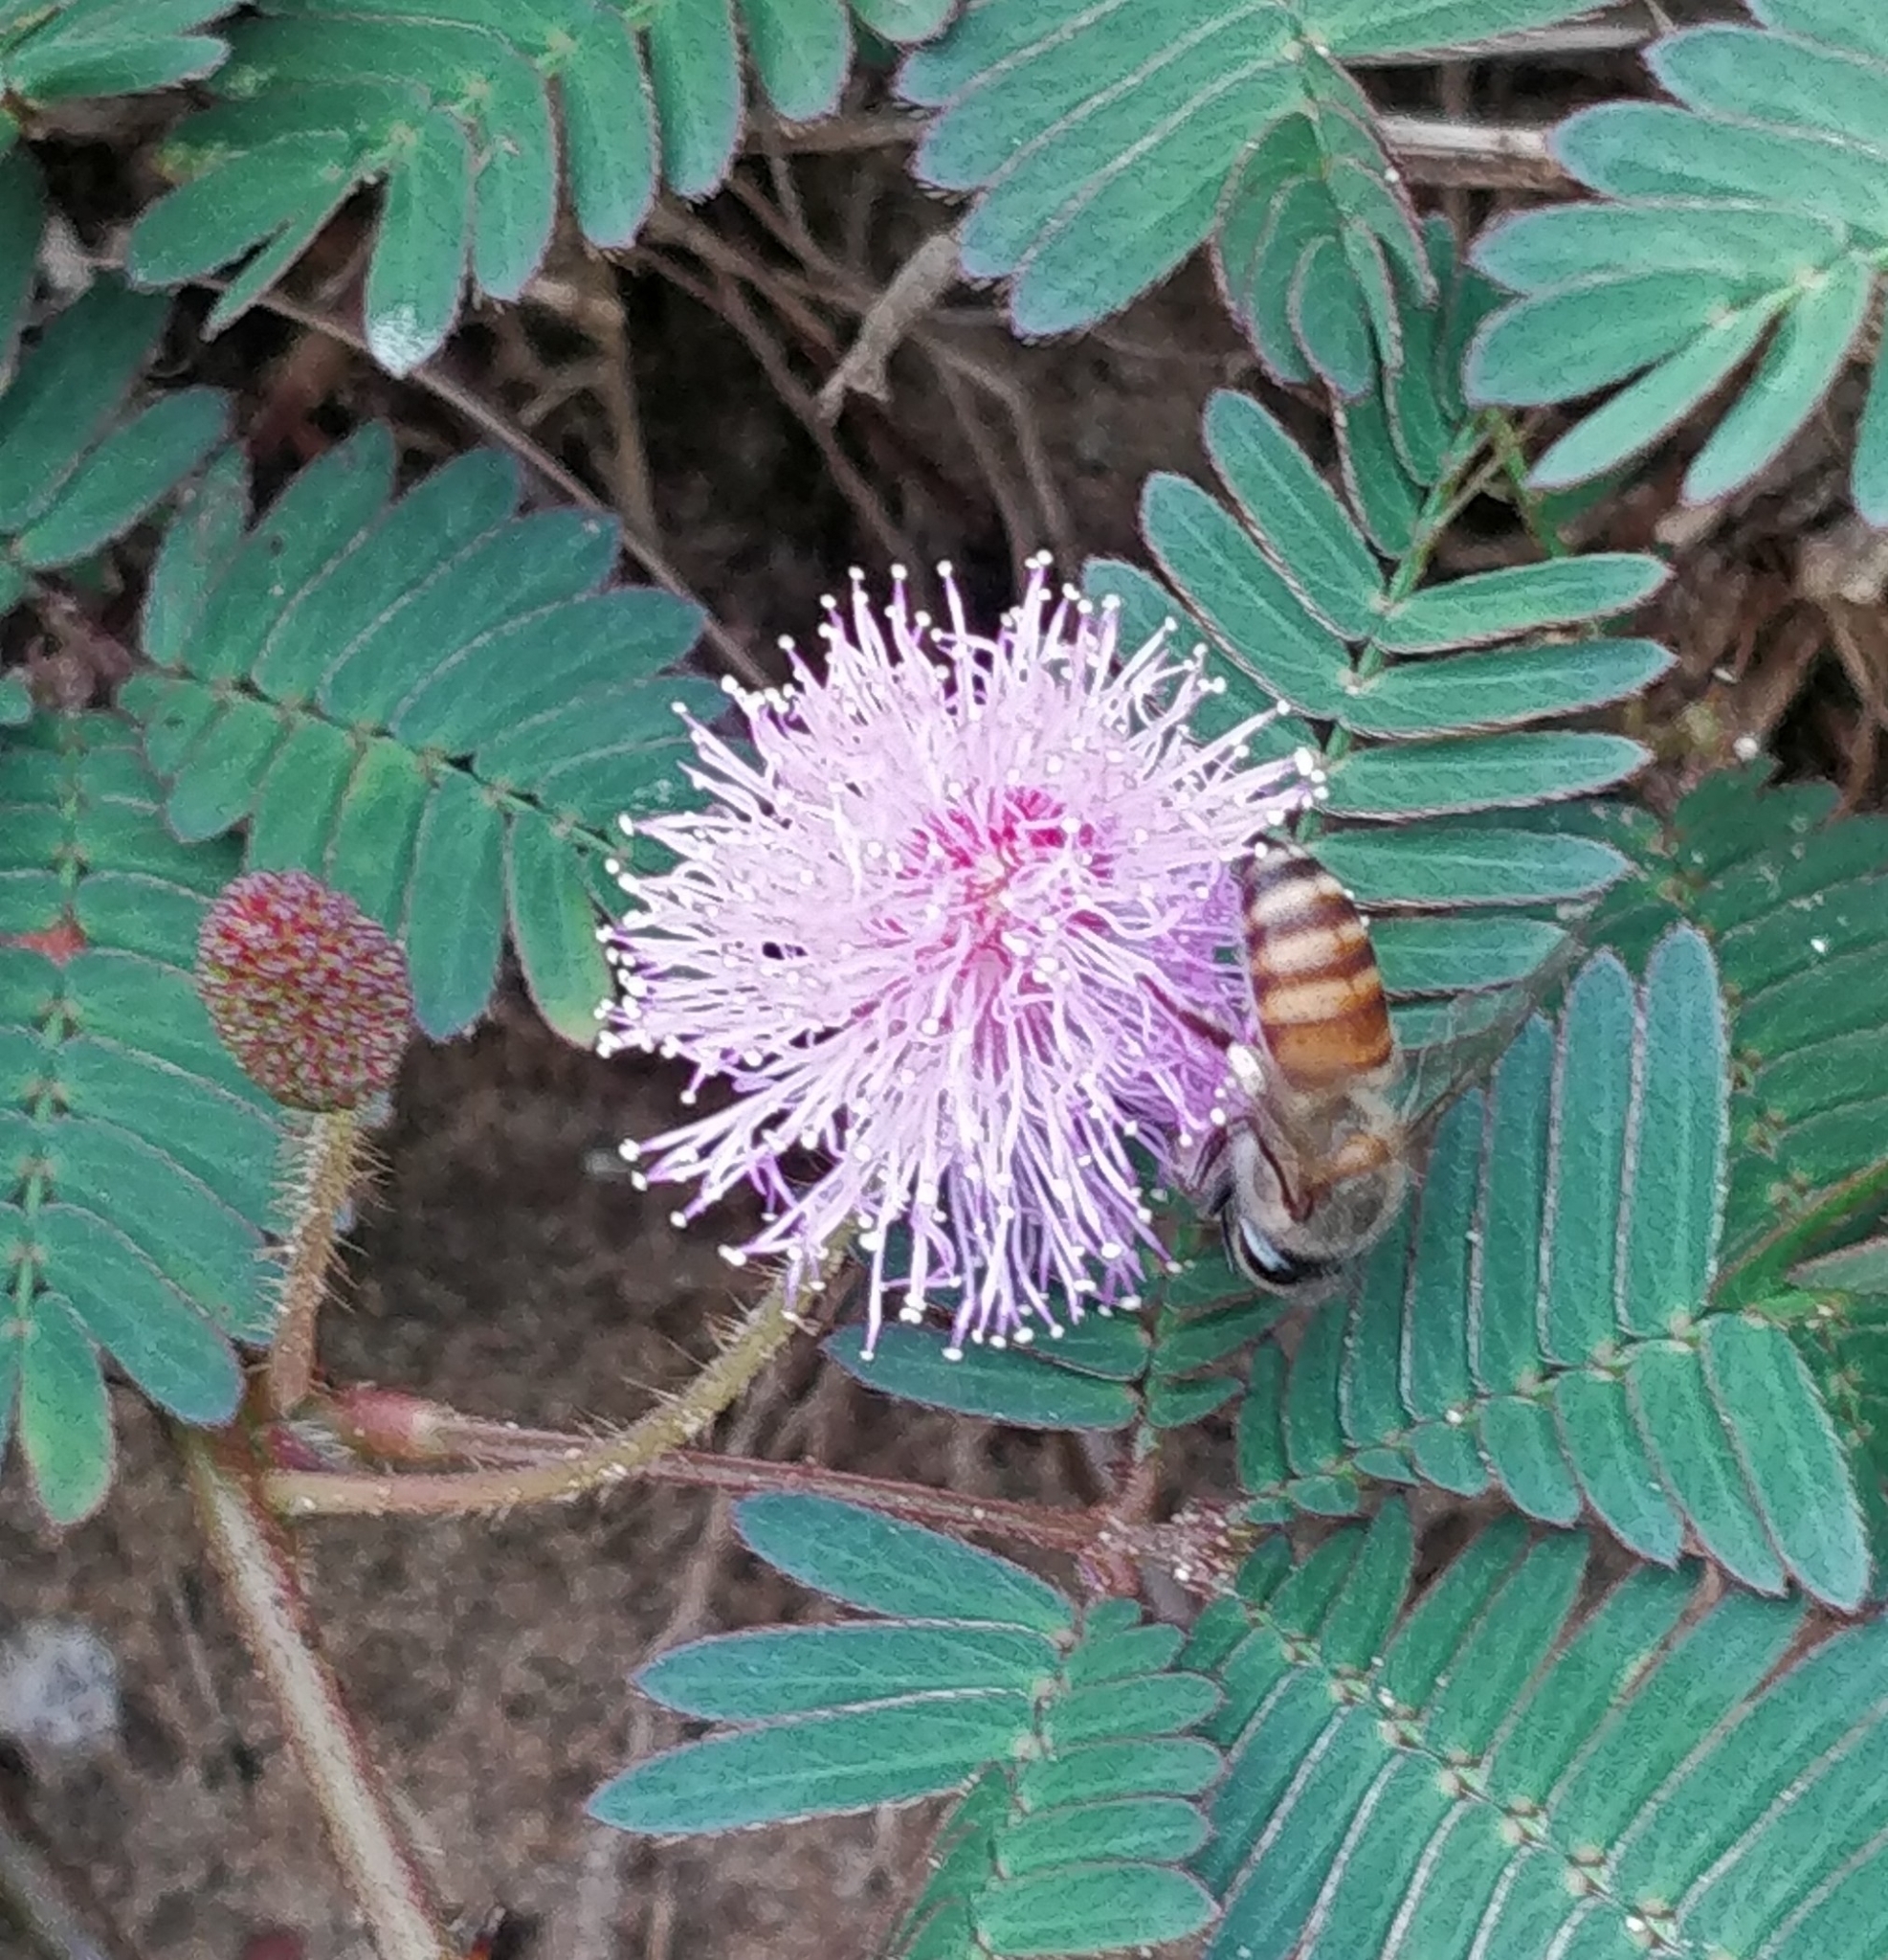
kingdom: Animalia
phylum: Arthropoda
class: Insecta
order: Hymenoptera
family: Apidae
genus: Apis
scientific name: Apis cerana
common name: Honey bee
